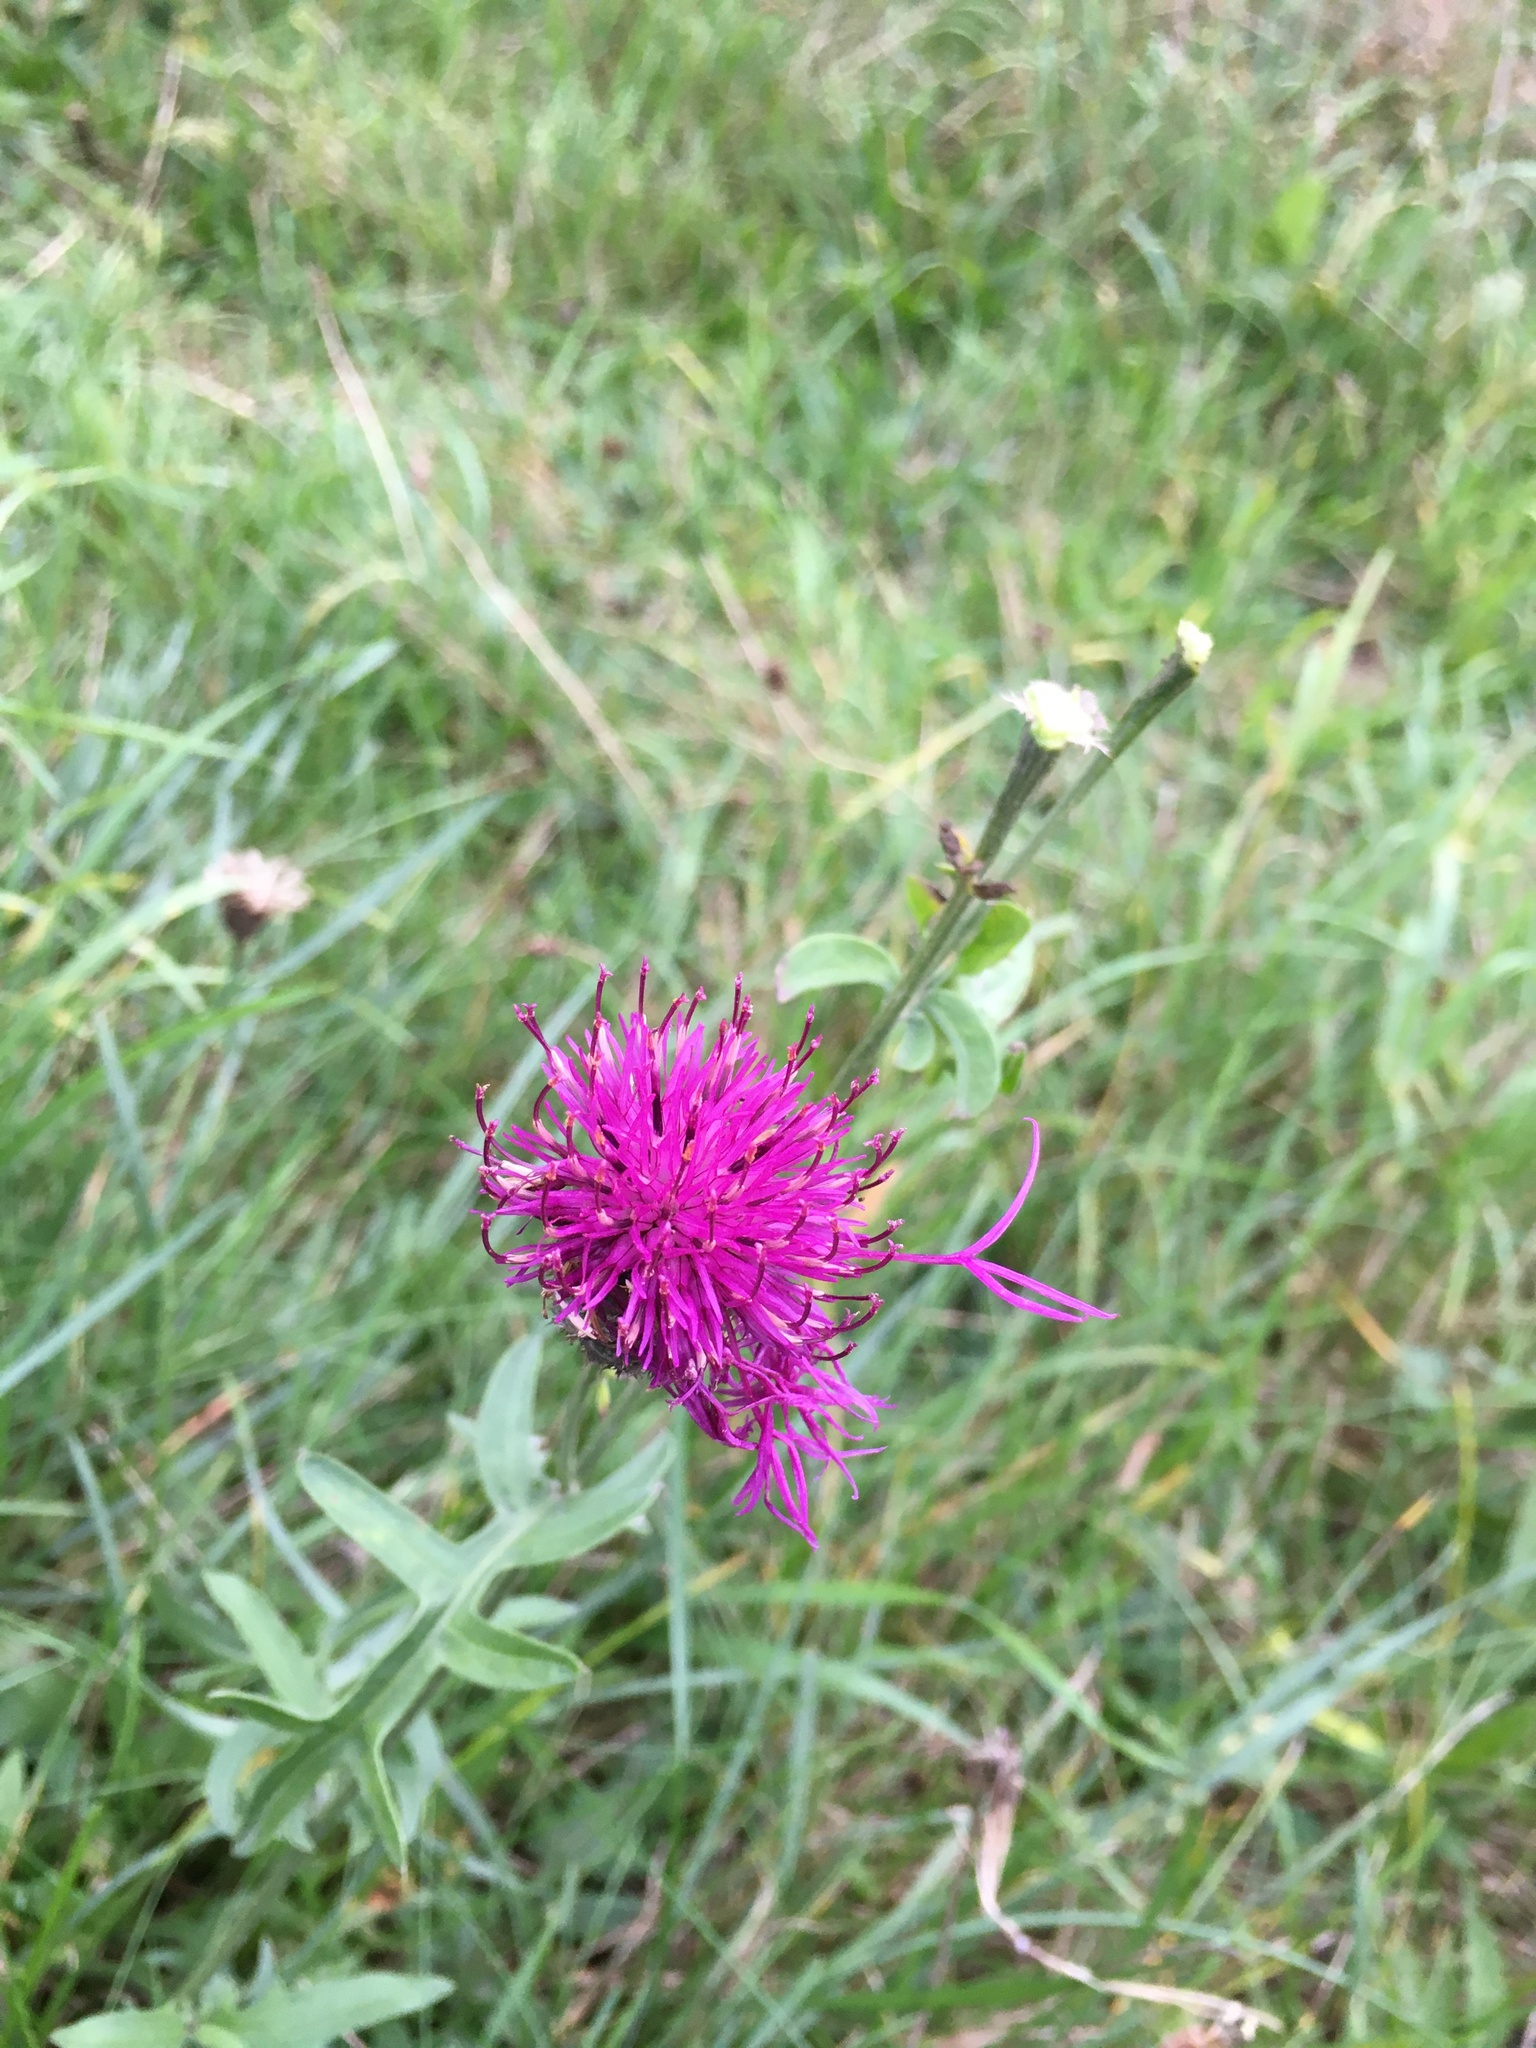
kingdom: Plantae
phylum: Tracheophyta
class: Magnoliopsida
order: Asterales
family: Asteraceae
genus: Centaurea
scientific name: Centaurea scabiosa
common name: Greater knapweed
